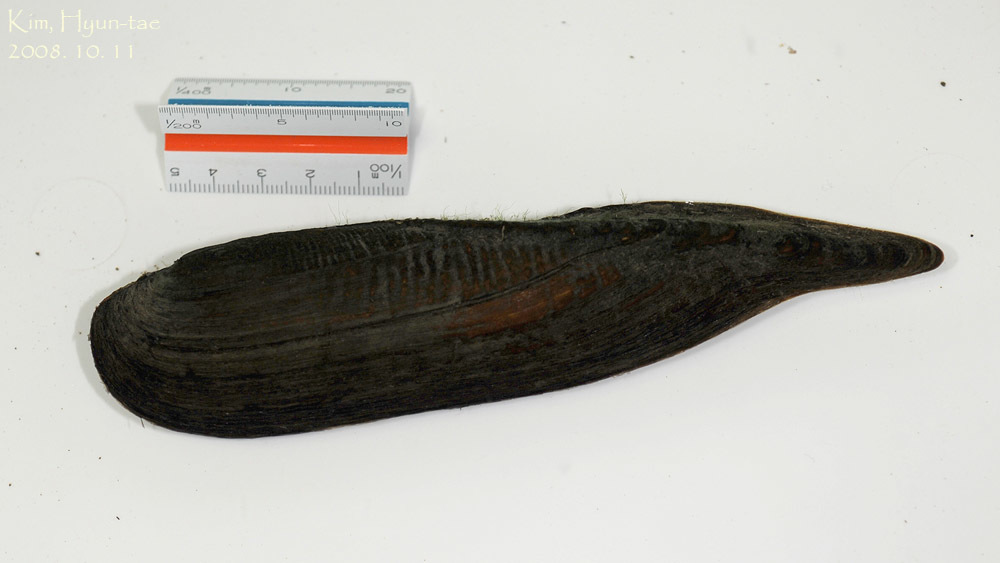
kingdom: Animalia
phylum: Mollusca
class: Bivalvia
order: Unionida
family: Unionidae
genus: Lanceolaria
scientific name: Lanceolaria acrorrhyncha
